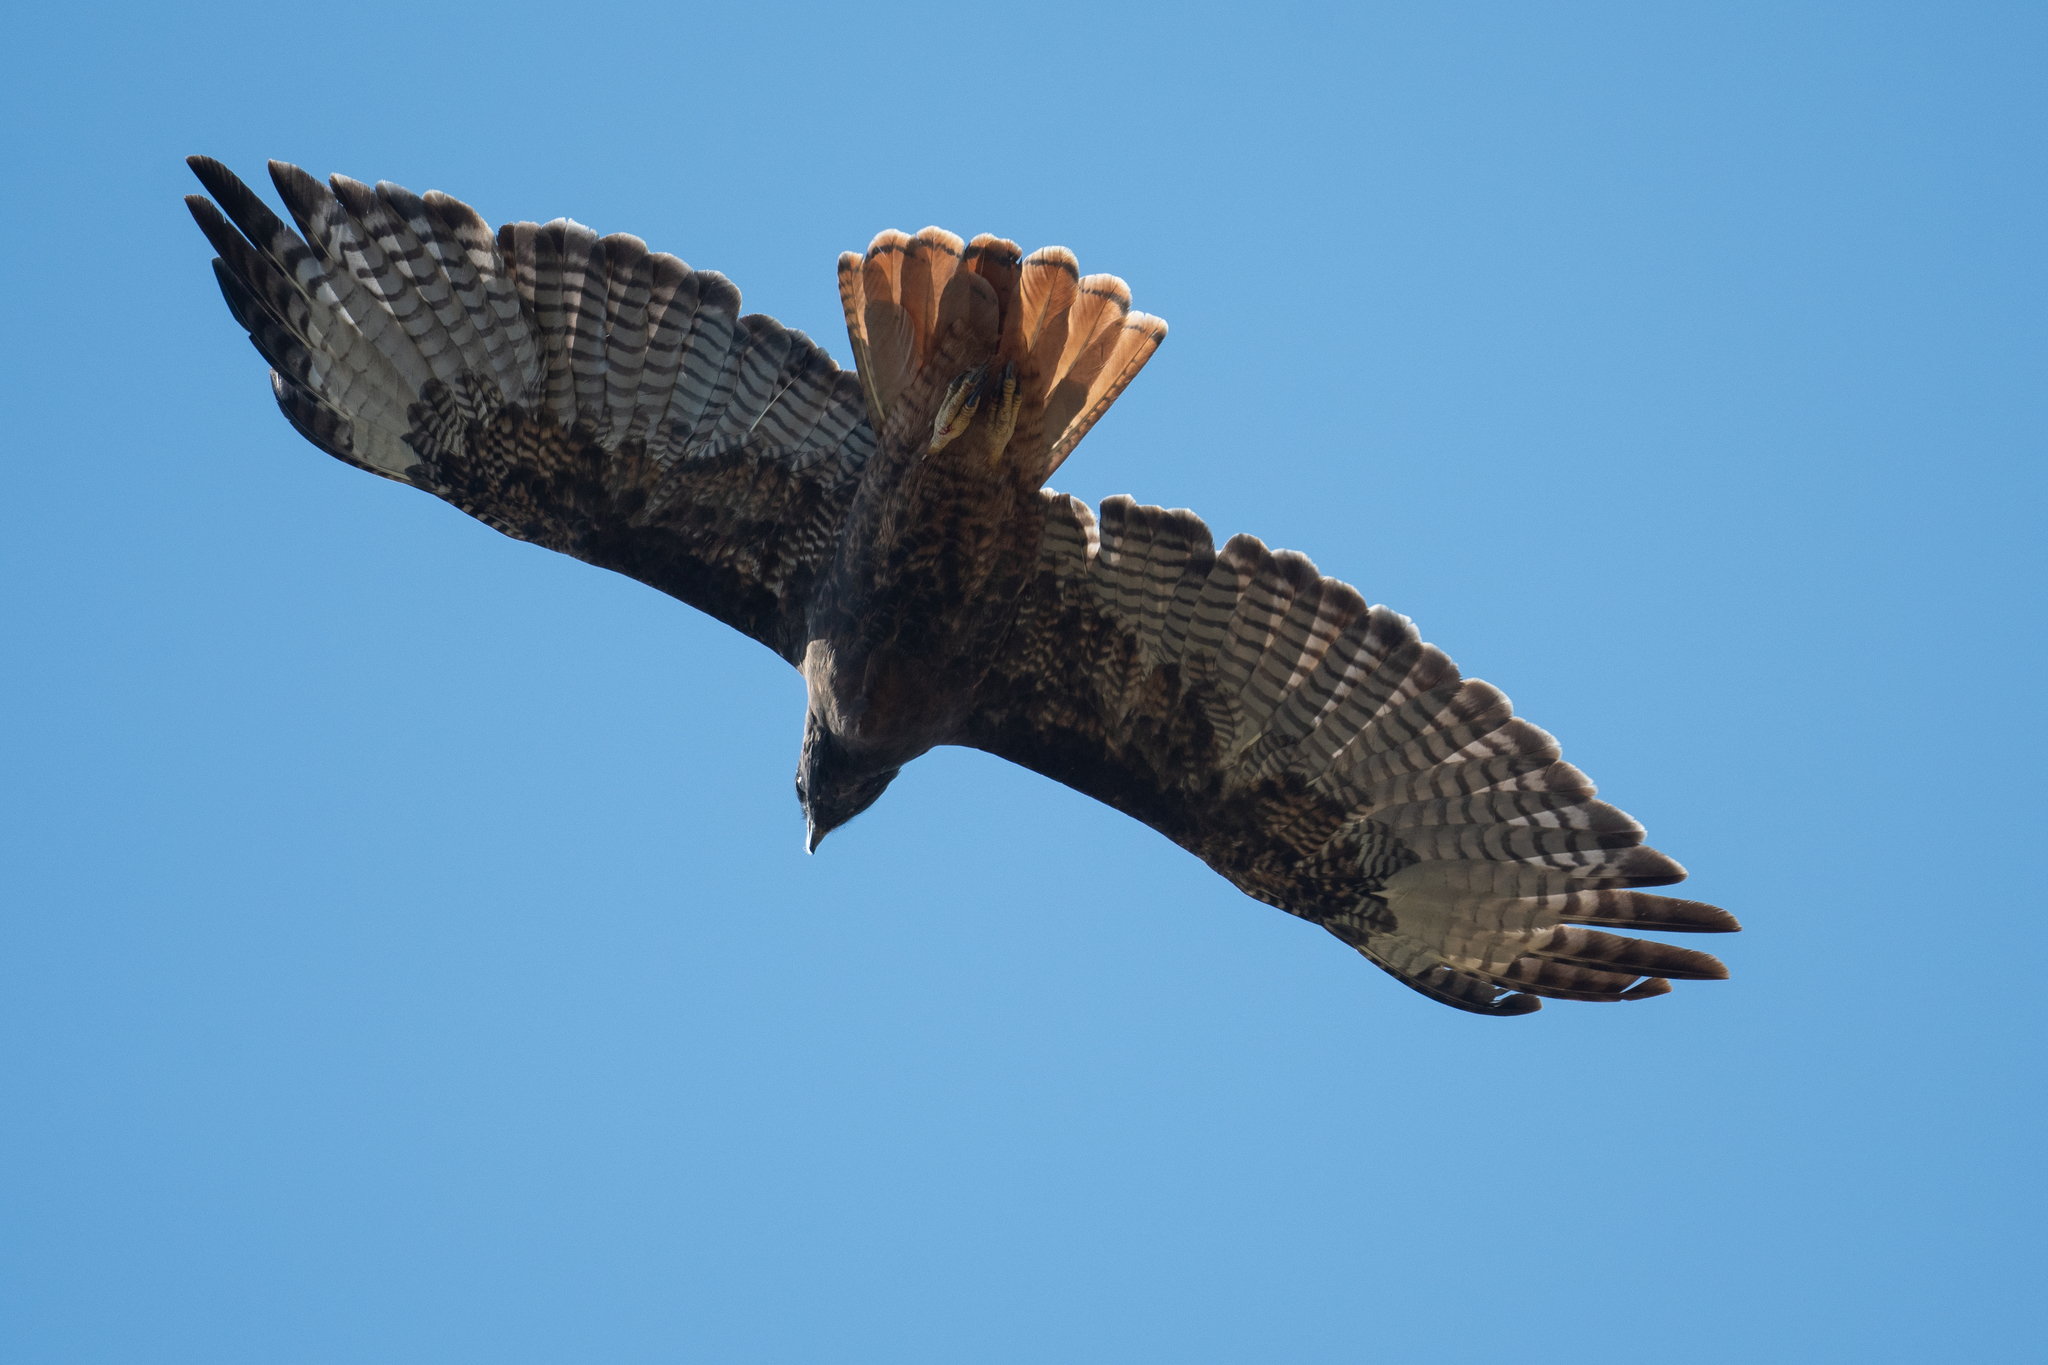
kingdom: Animalia
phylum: Chordata
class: Aves
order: Accipitriformes
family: Accipitridae
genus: Buteo
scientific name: Buteo jamaicensis
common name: Red-tailed hawk
